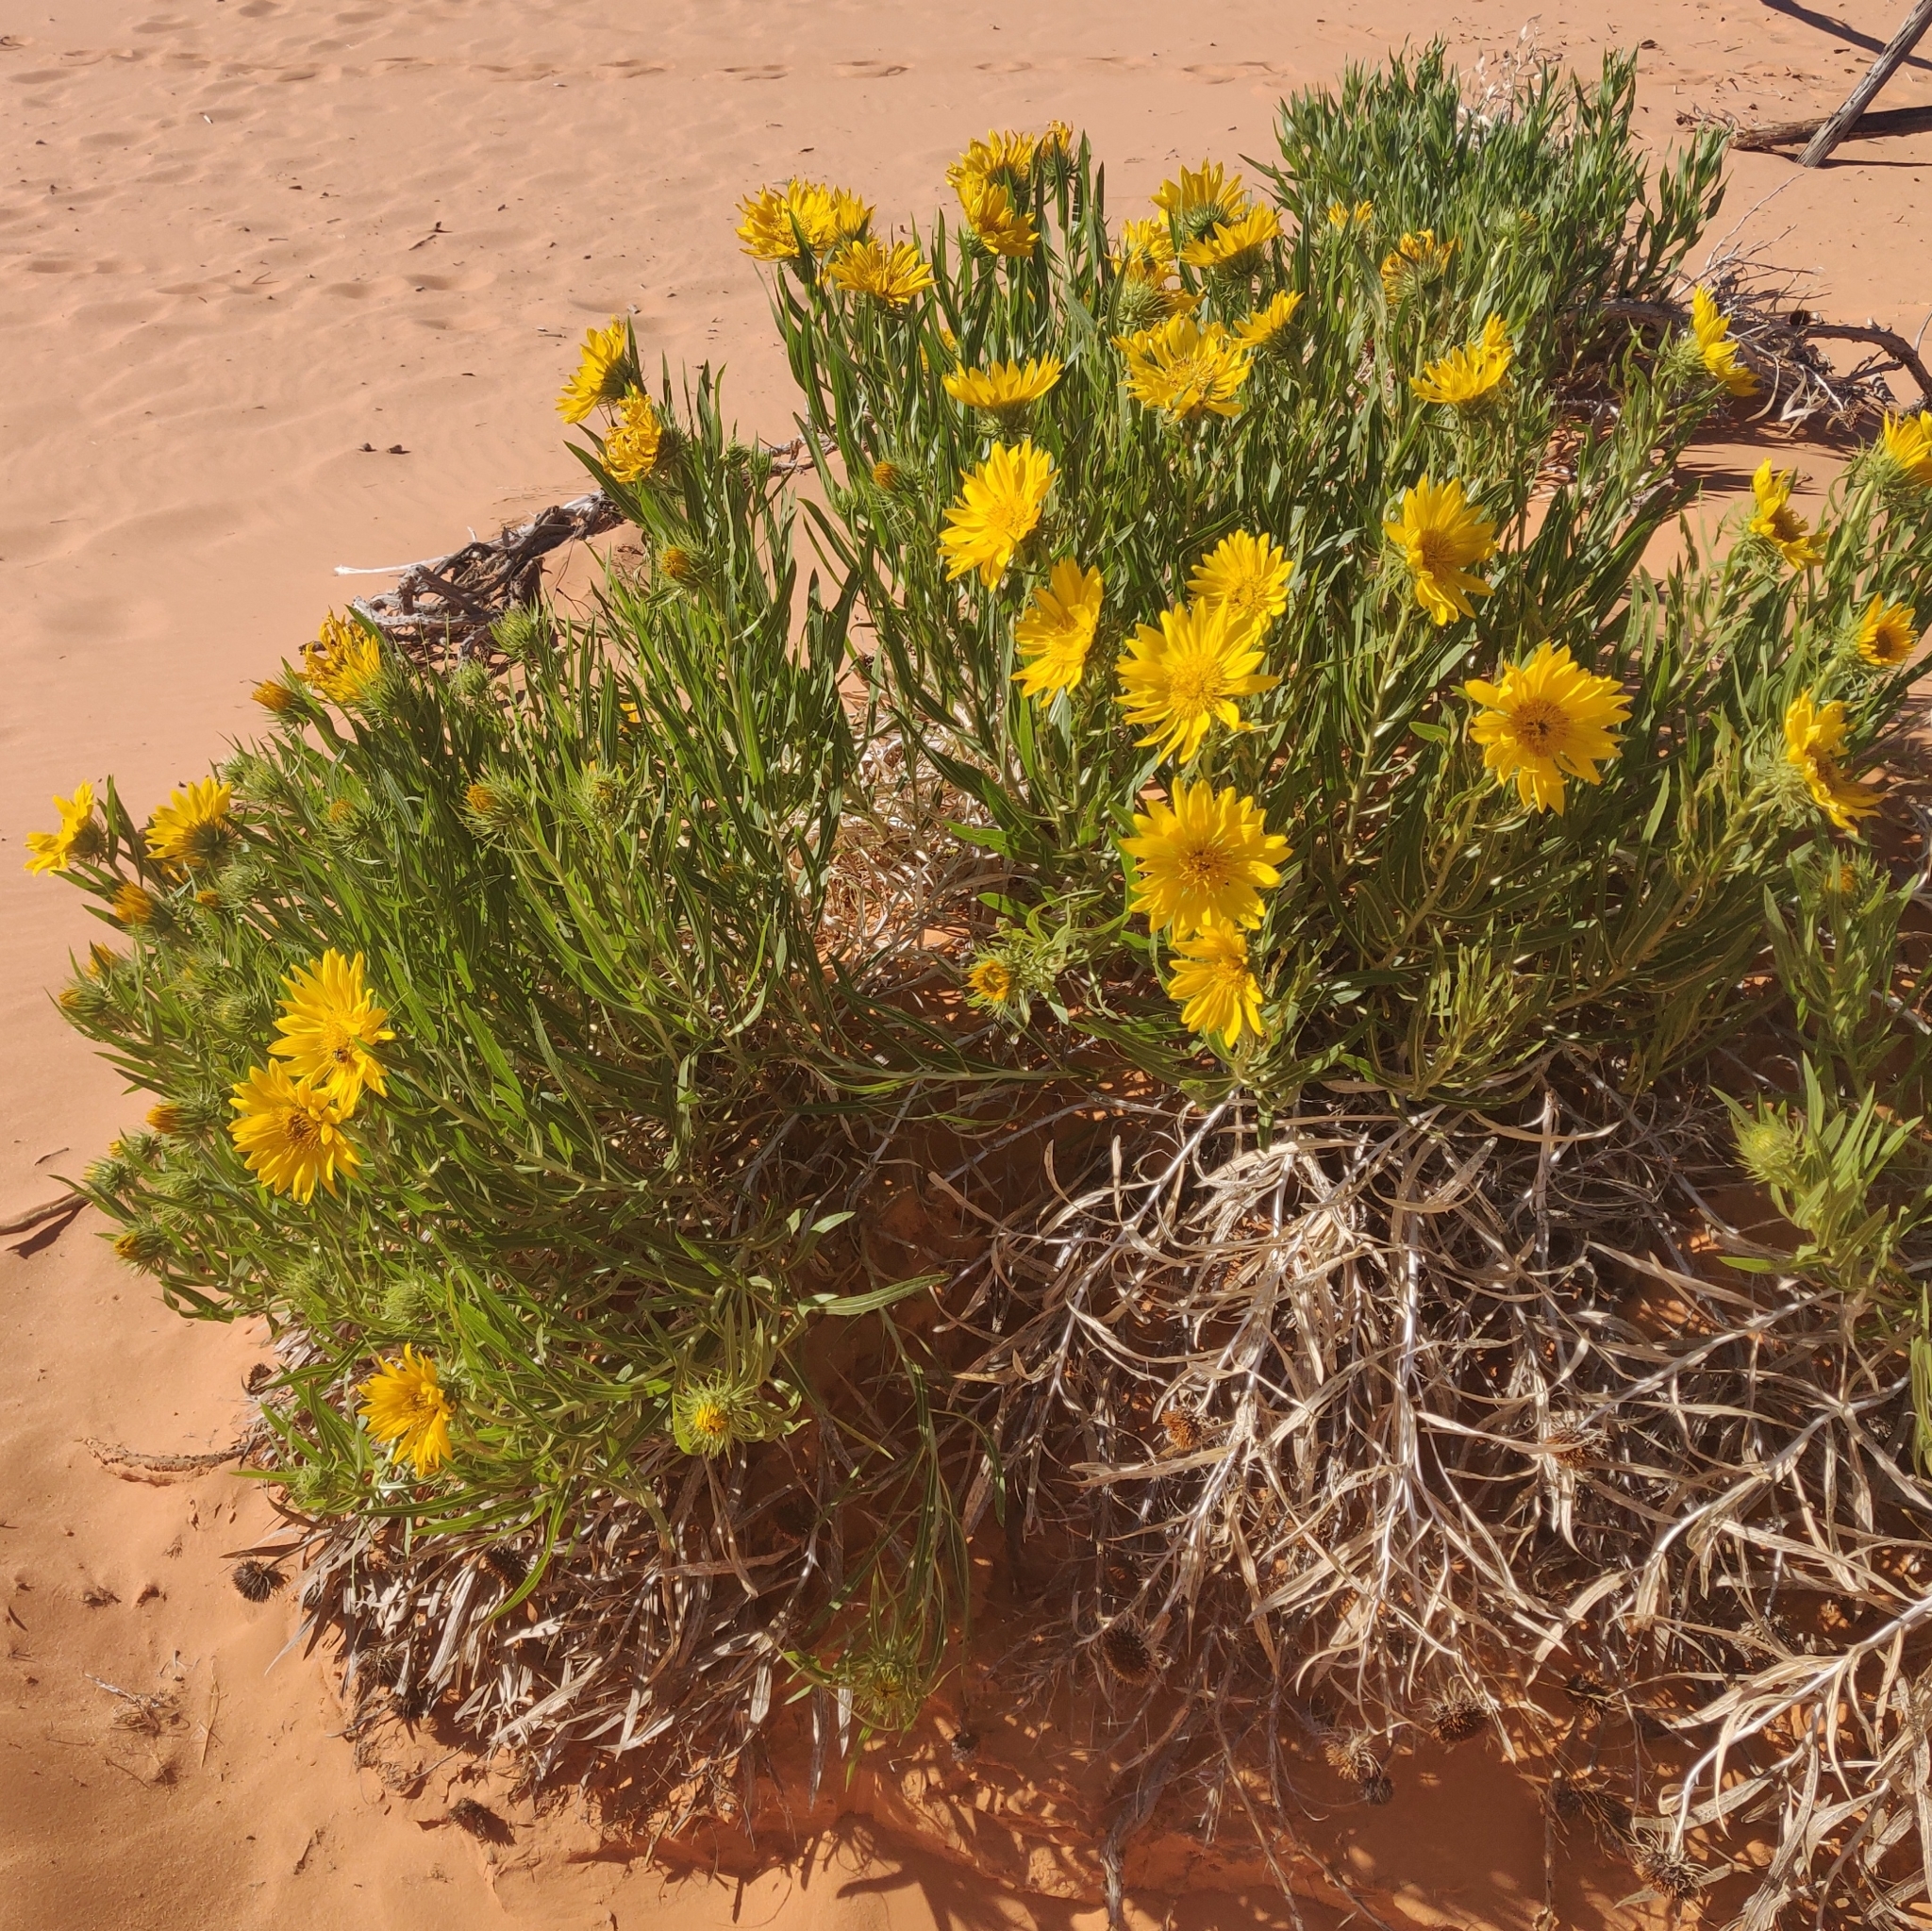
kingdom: Plantae
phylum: Tracheophyta
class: Magnoliopsida
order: Asterales
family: Asteraceae
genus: Scabrethia
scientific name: Scabrethia scabra
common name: Rough mules's-ears
